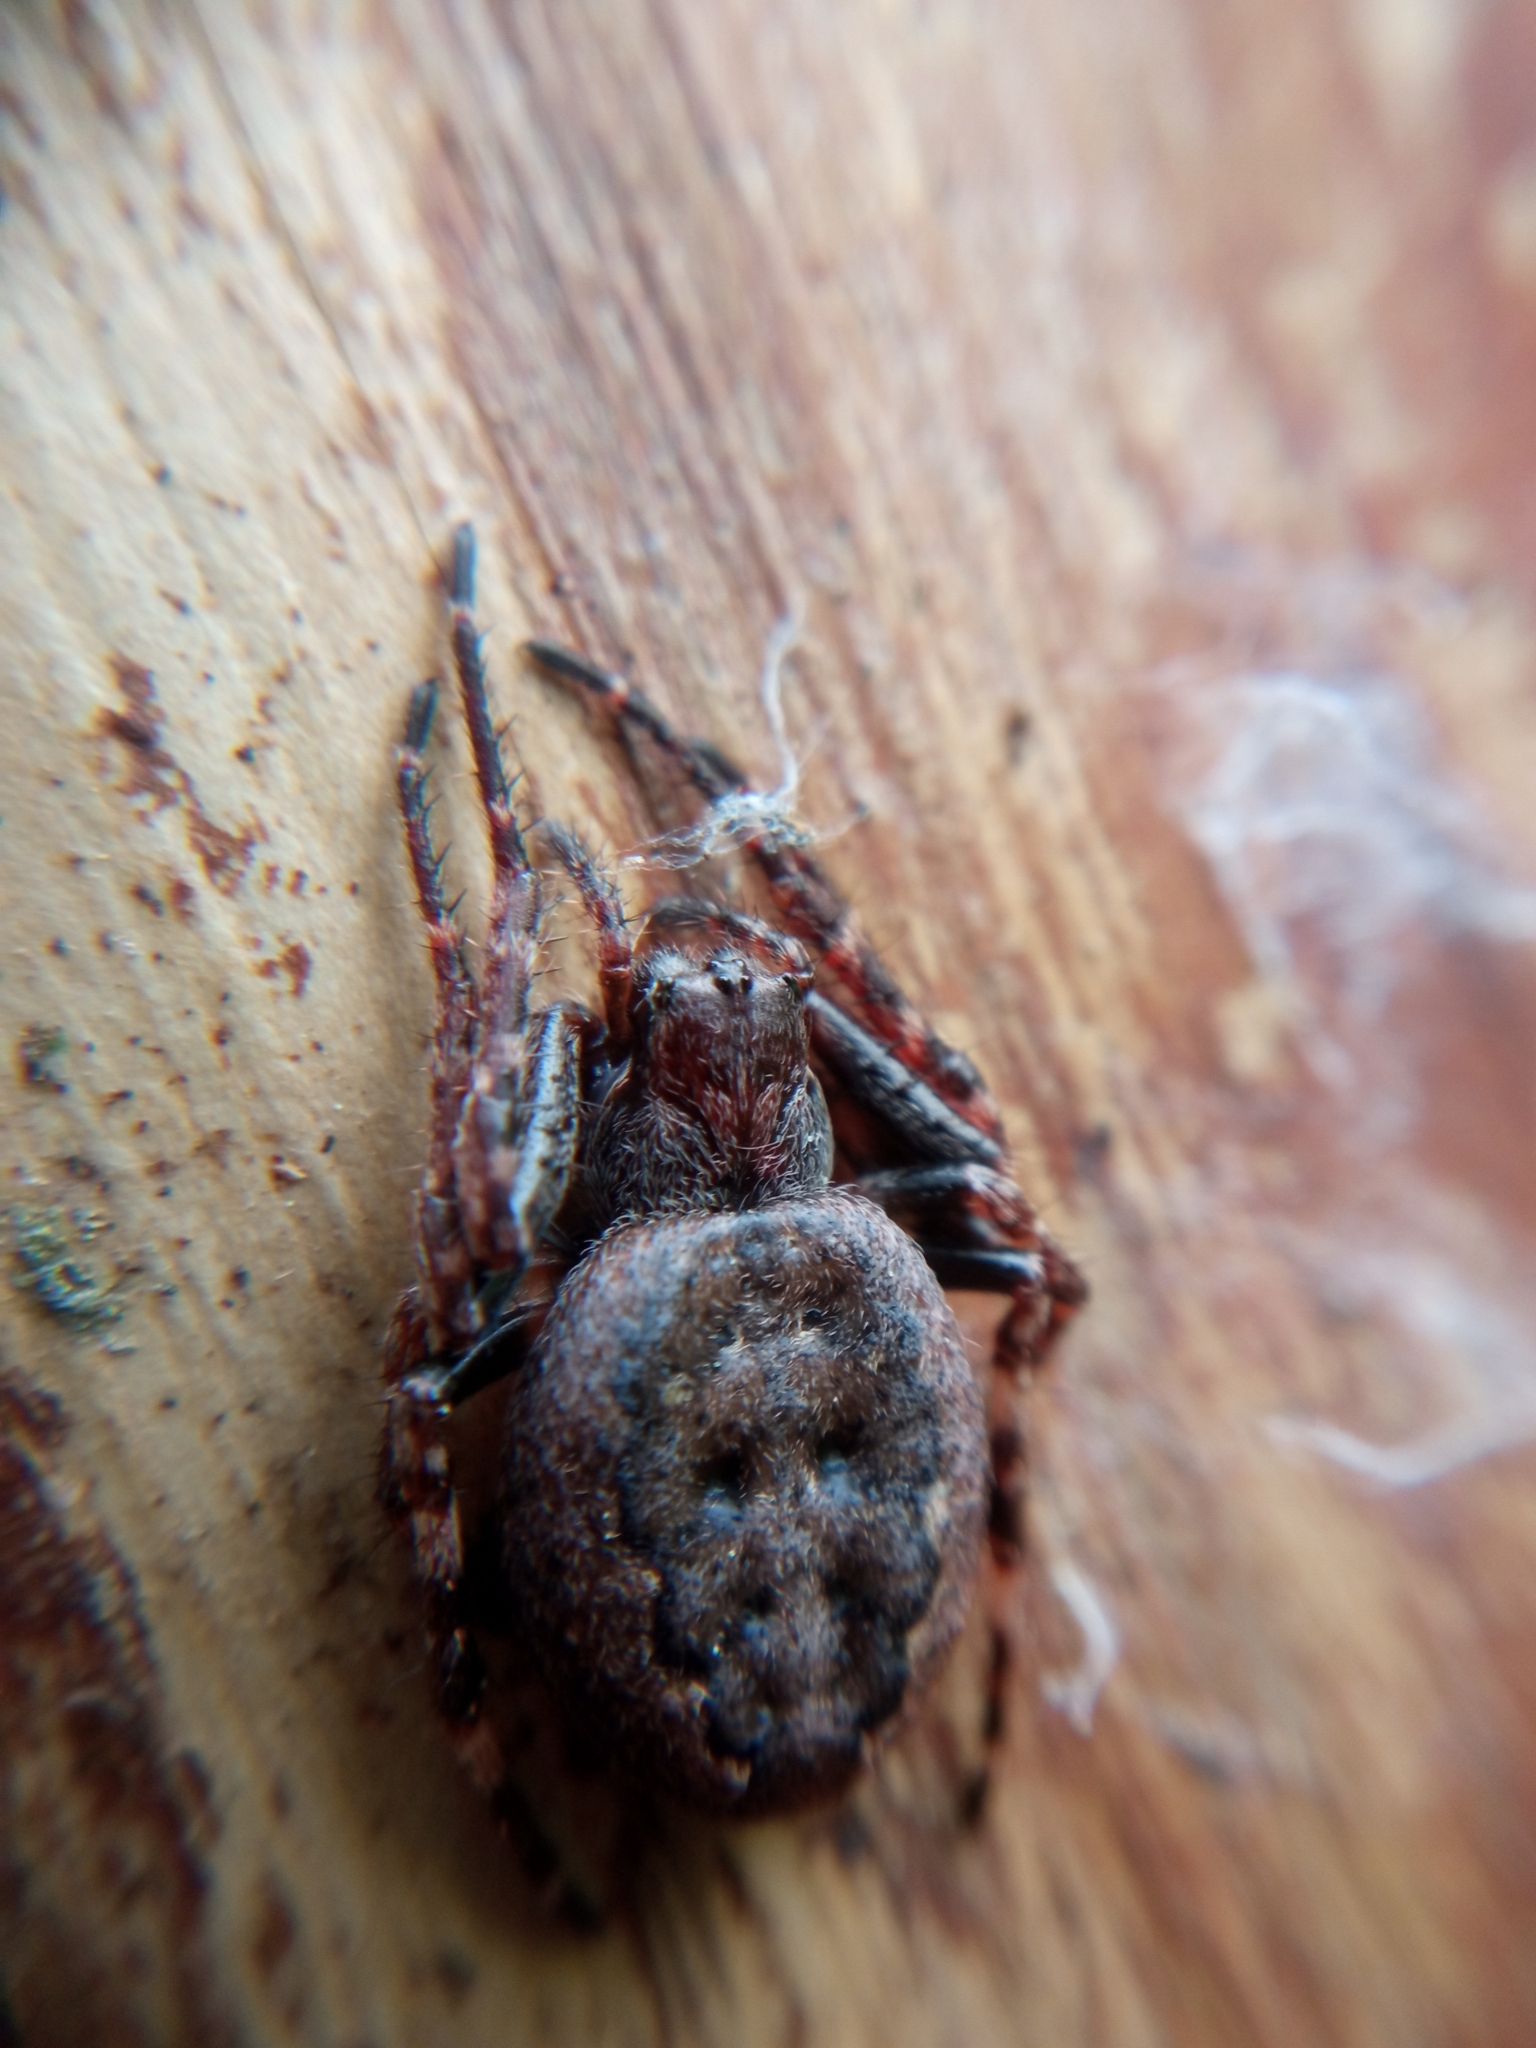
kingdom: Animalia
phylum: Arthropoda
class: Arachnida
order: Araneae
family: Araneidae
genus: Nuctenea
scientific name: Nuctenea umbratica
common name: Toad spider
